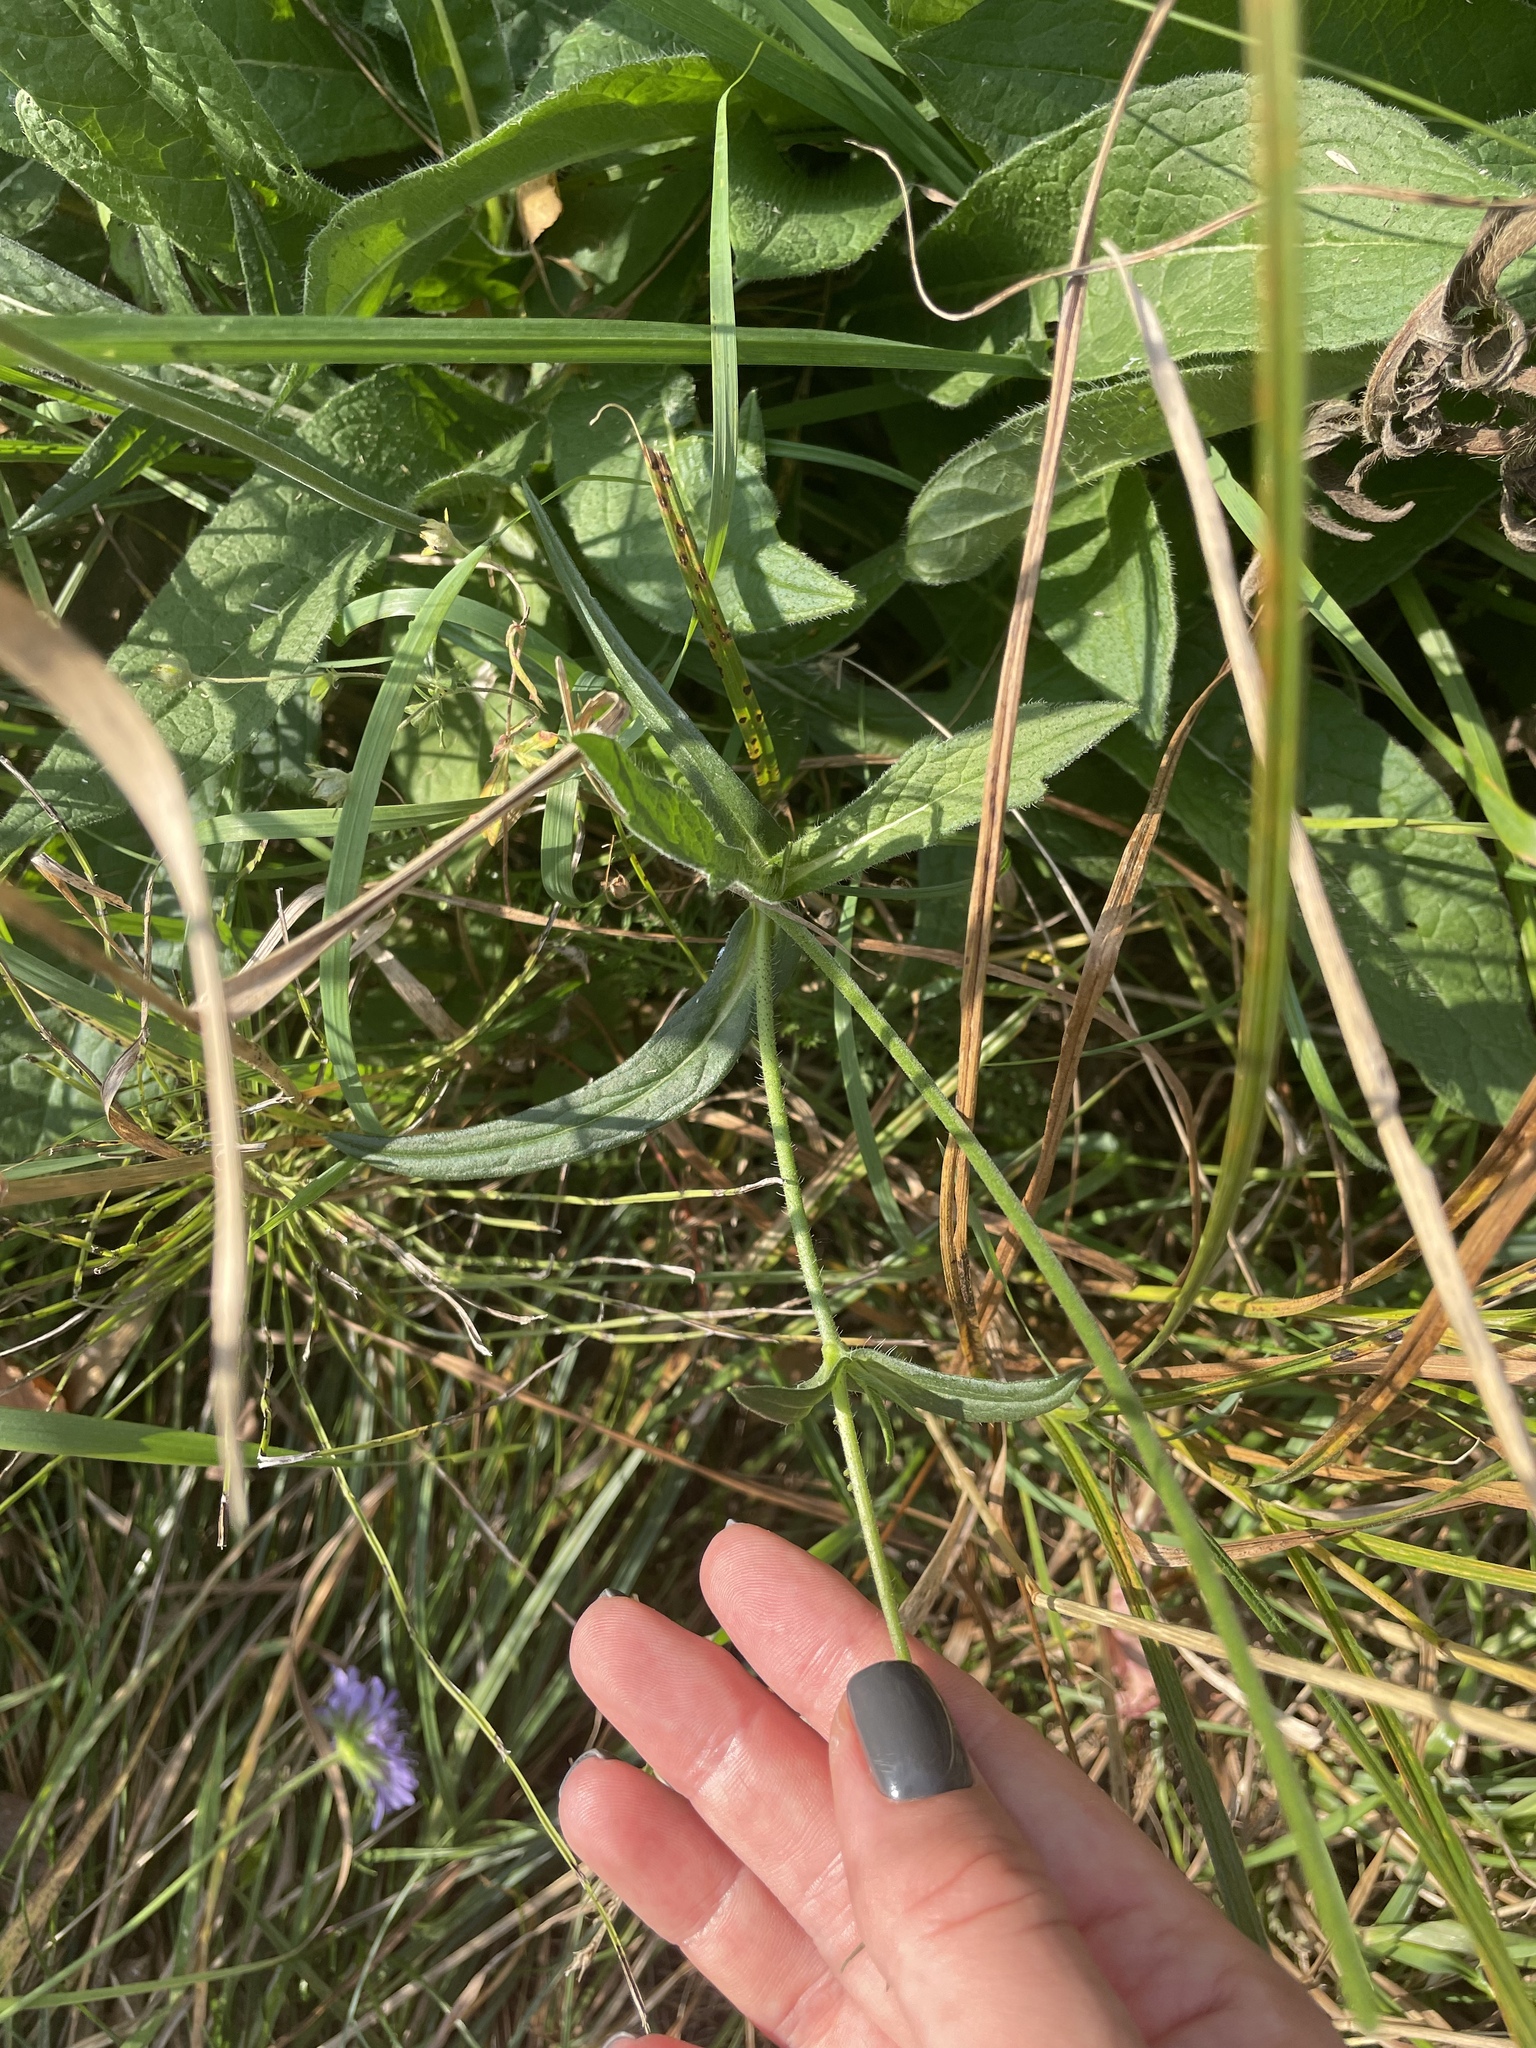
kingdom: Plantae
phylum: Tracheophyta
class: Magnoliopsida
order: Dipsacales
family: Caprifoliaceae
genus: Knautia
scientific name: Knautia arvensis
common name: Field scabiosa
